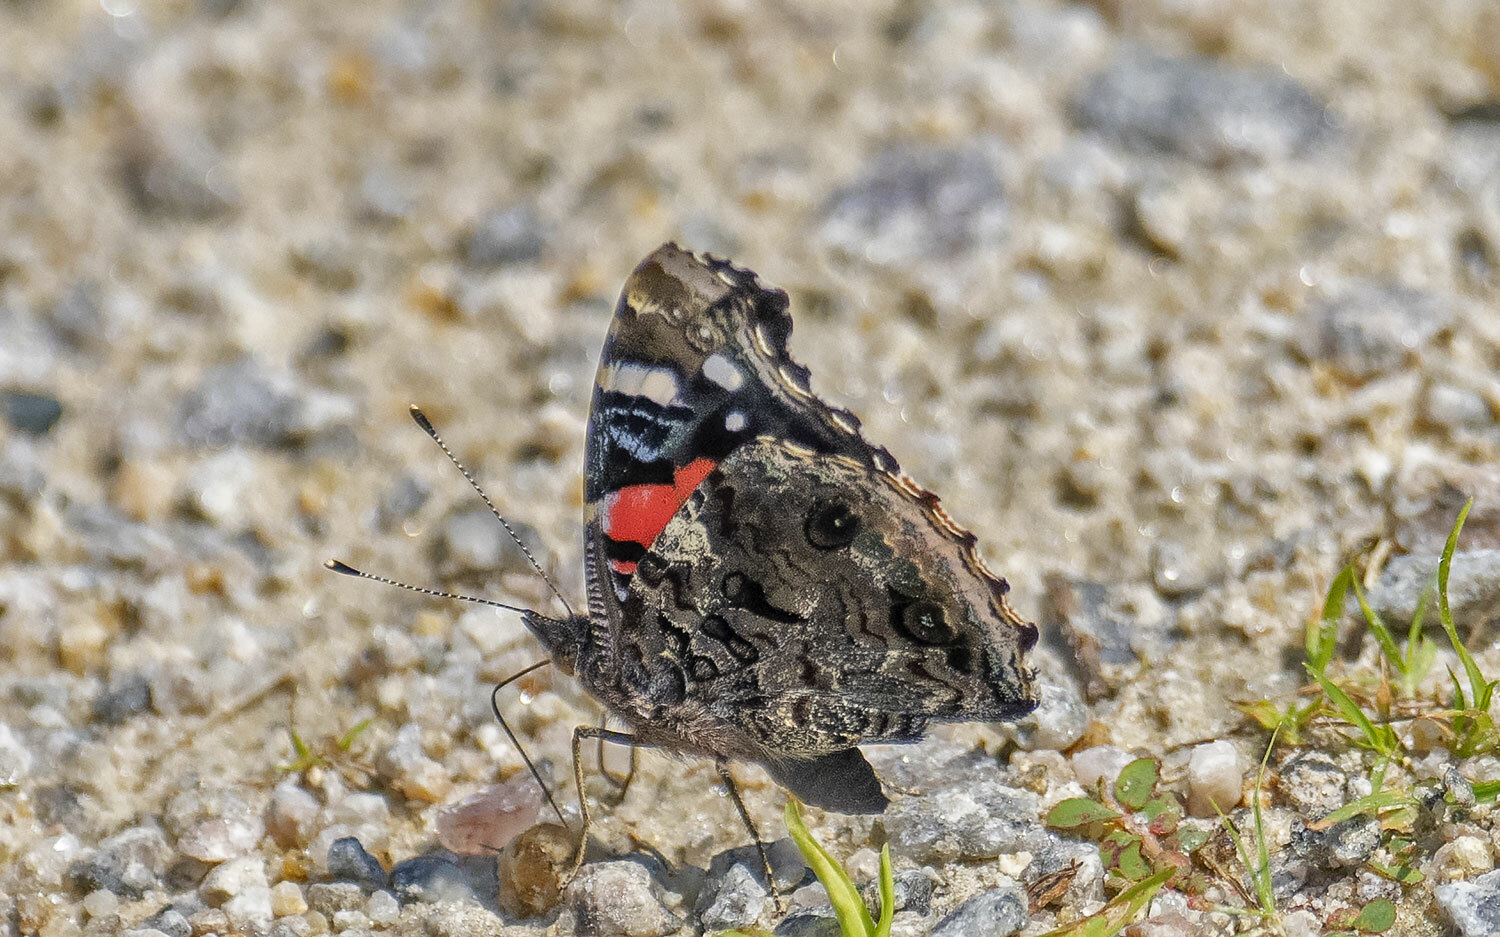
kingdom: Animalia
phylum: Arthropoda
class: Insecta
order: Lepidoptera
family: Nymphalidae
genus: Vanessa
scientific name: Vanessa atalanta
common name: Red admiral
